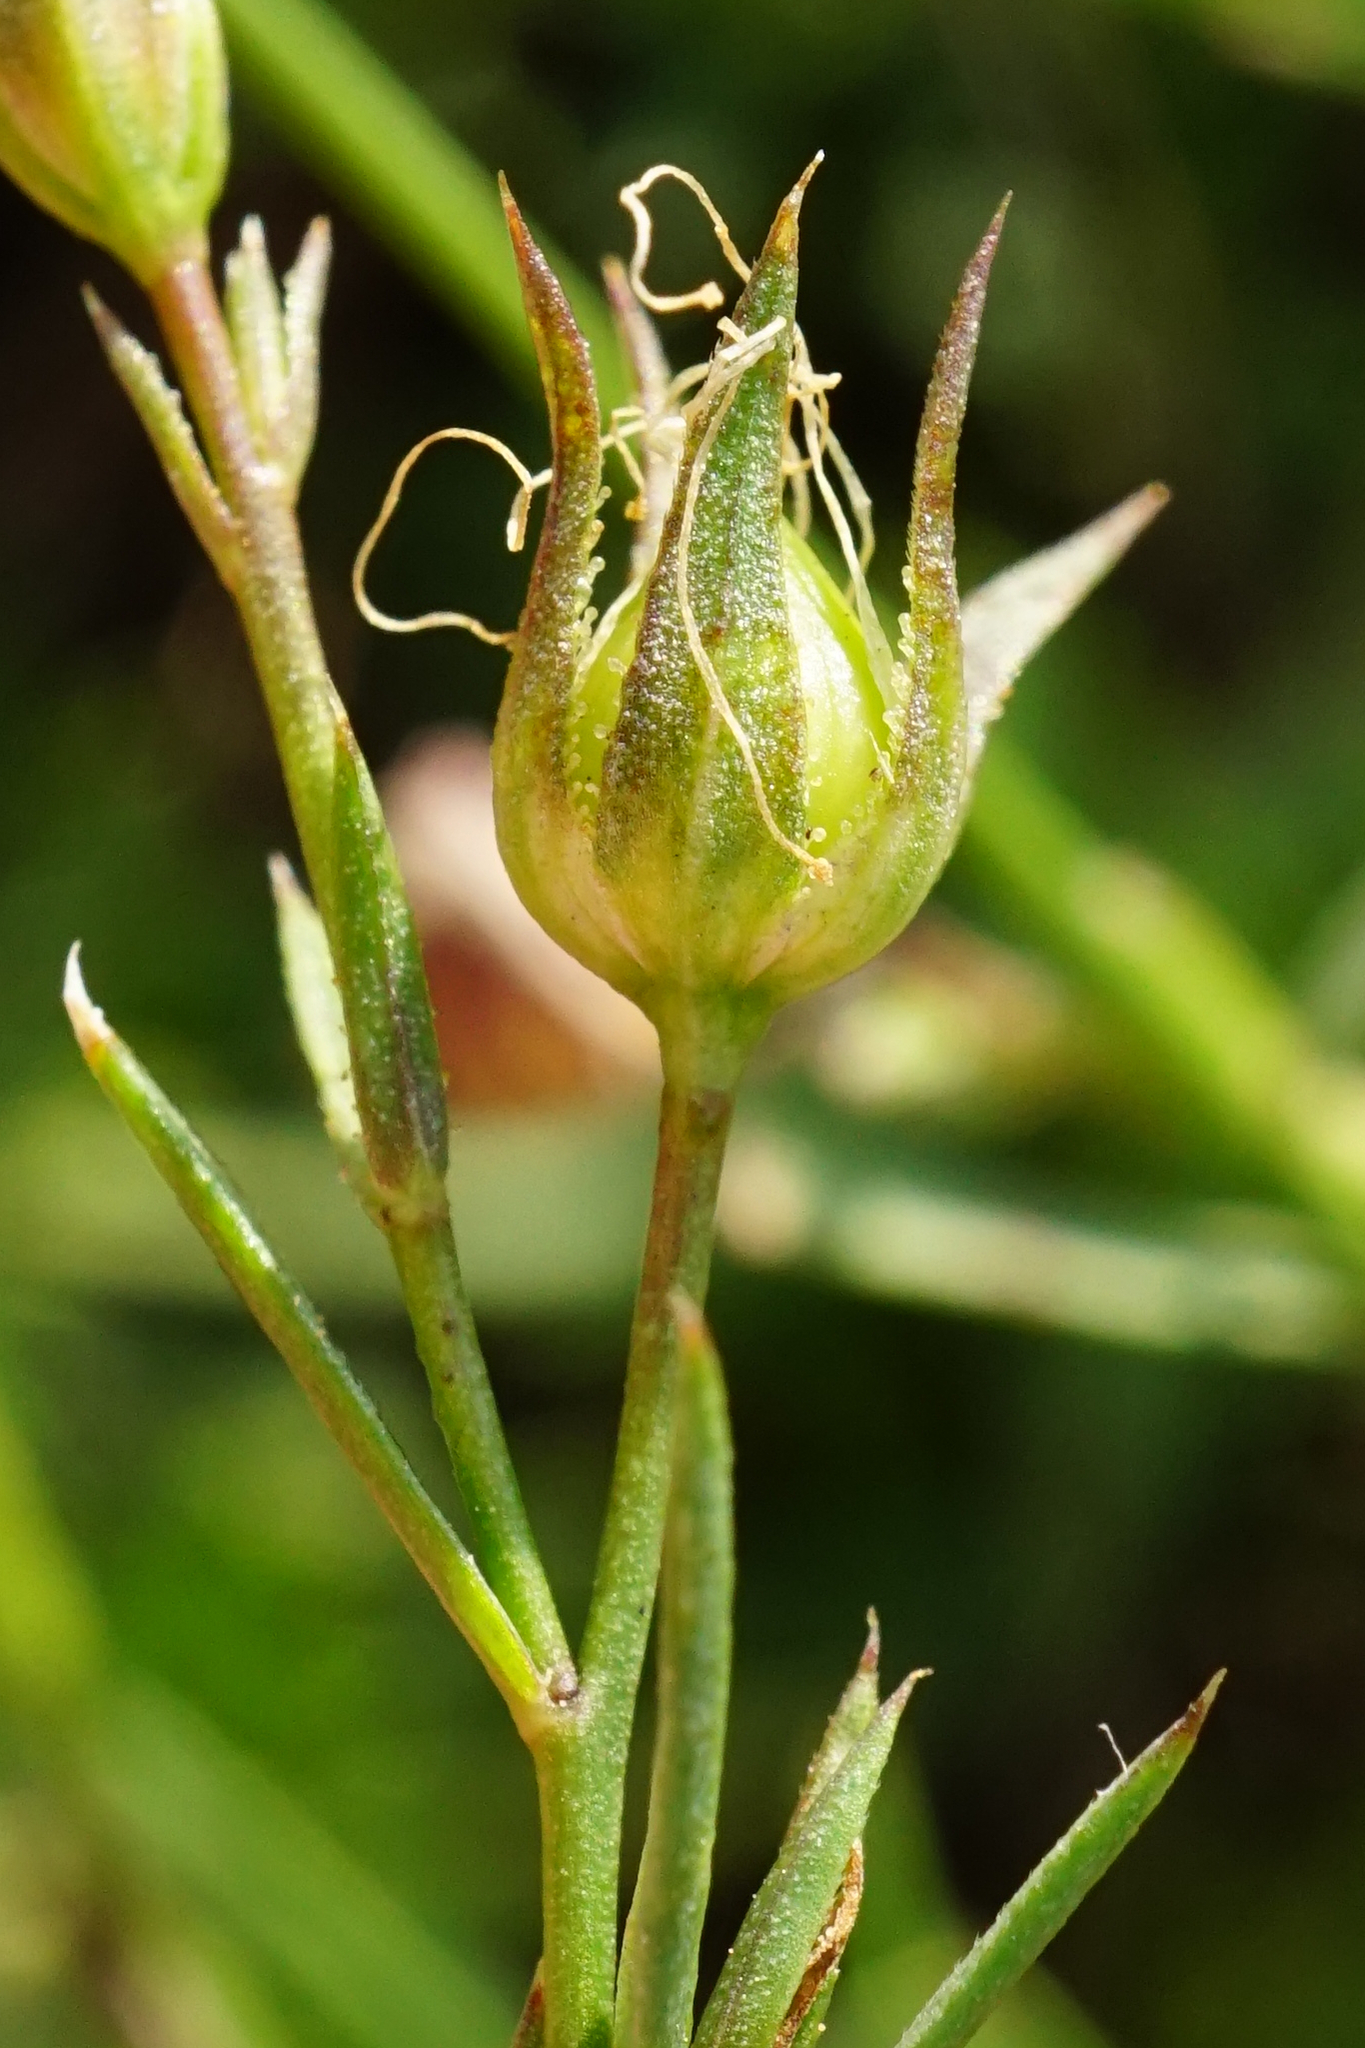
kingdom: Plantae
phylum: Tracheophyta
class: Magnoliopsida
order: Malpighiales
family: Linaceae
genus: Linum
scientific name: Linum tenuifolium
